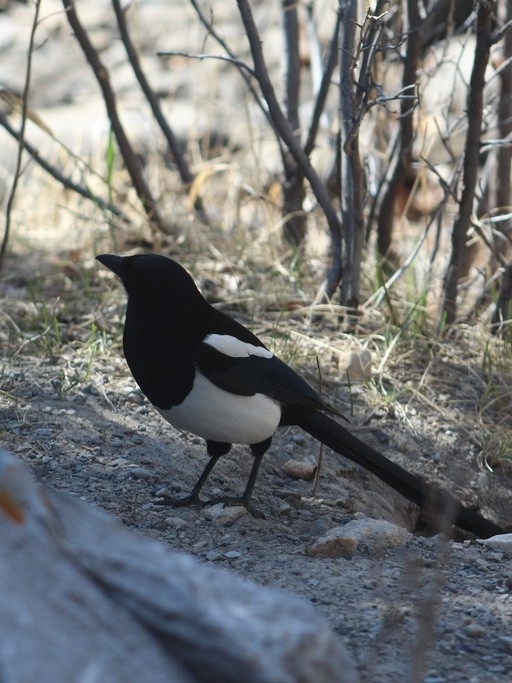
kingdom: Animalia
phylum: Chordata
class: Aves
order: Passeriformes
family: Corvidae
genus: Pica
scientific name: Pica hudsonia
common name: Black-billed magpie
